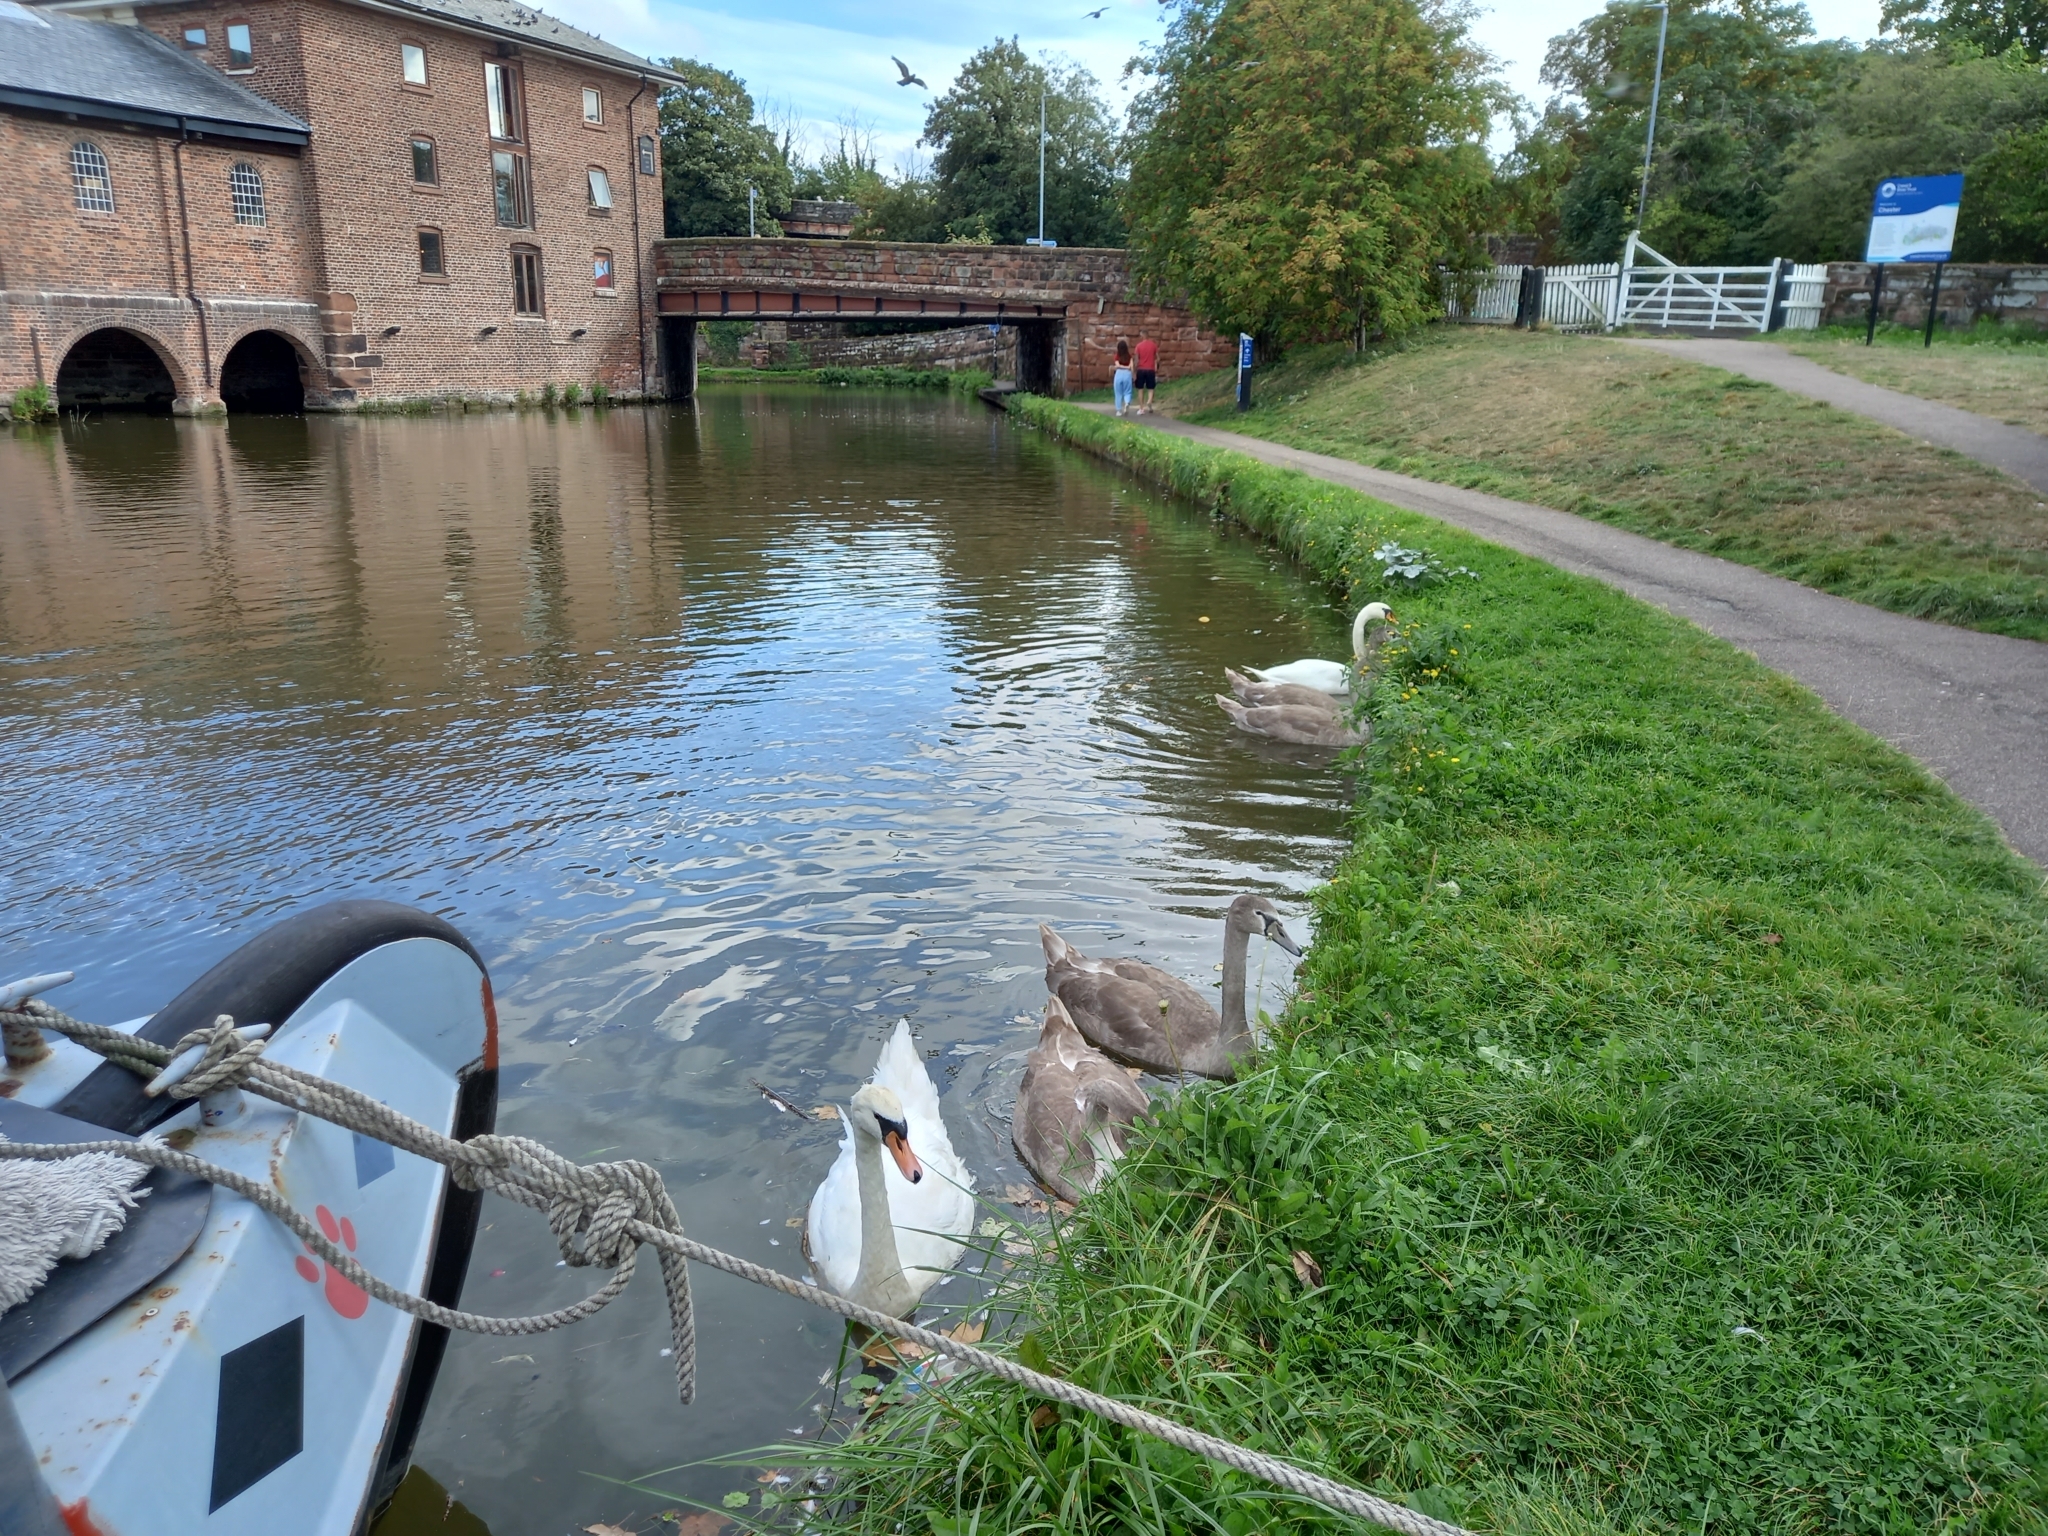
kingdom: Animalia
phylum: Chordata
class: Aves
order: Anseriformes
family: Anatidae
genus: Cygnus
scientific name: Cygnus olor
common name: Mute swan
